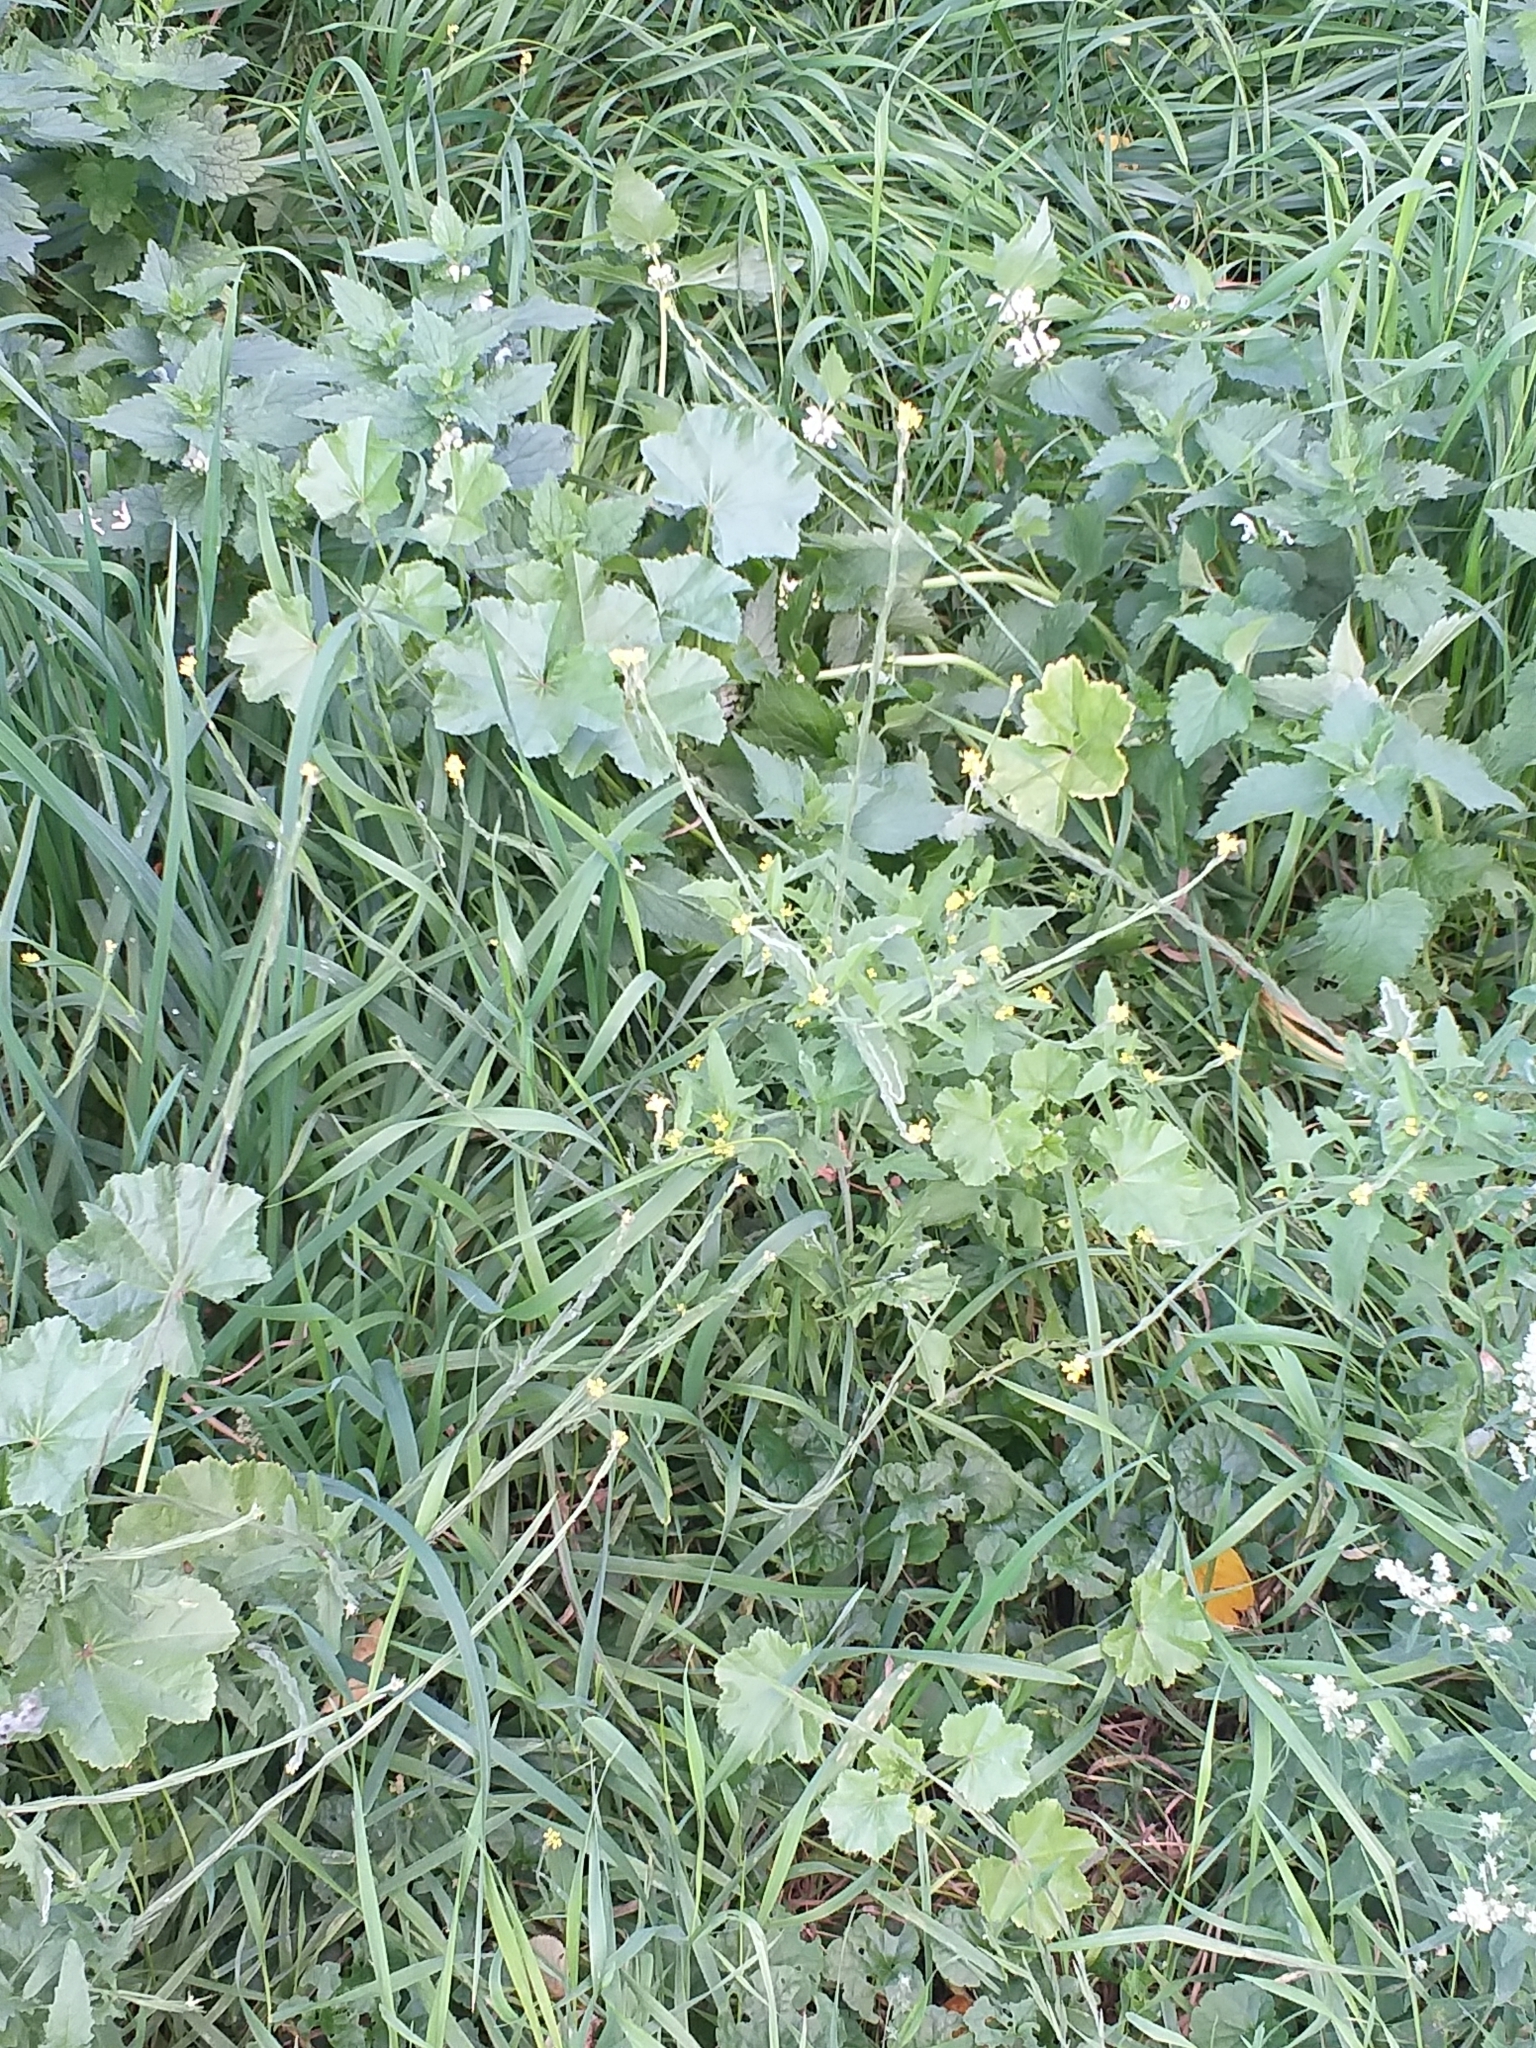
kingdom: Plantae
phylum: Tracheophyta
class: Magnoliopsida
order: Brassicales
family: Brassicaceae
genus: Sisymbrium
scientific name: Sisymbrium officinale
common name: Hedge mustard
